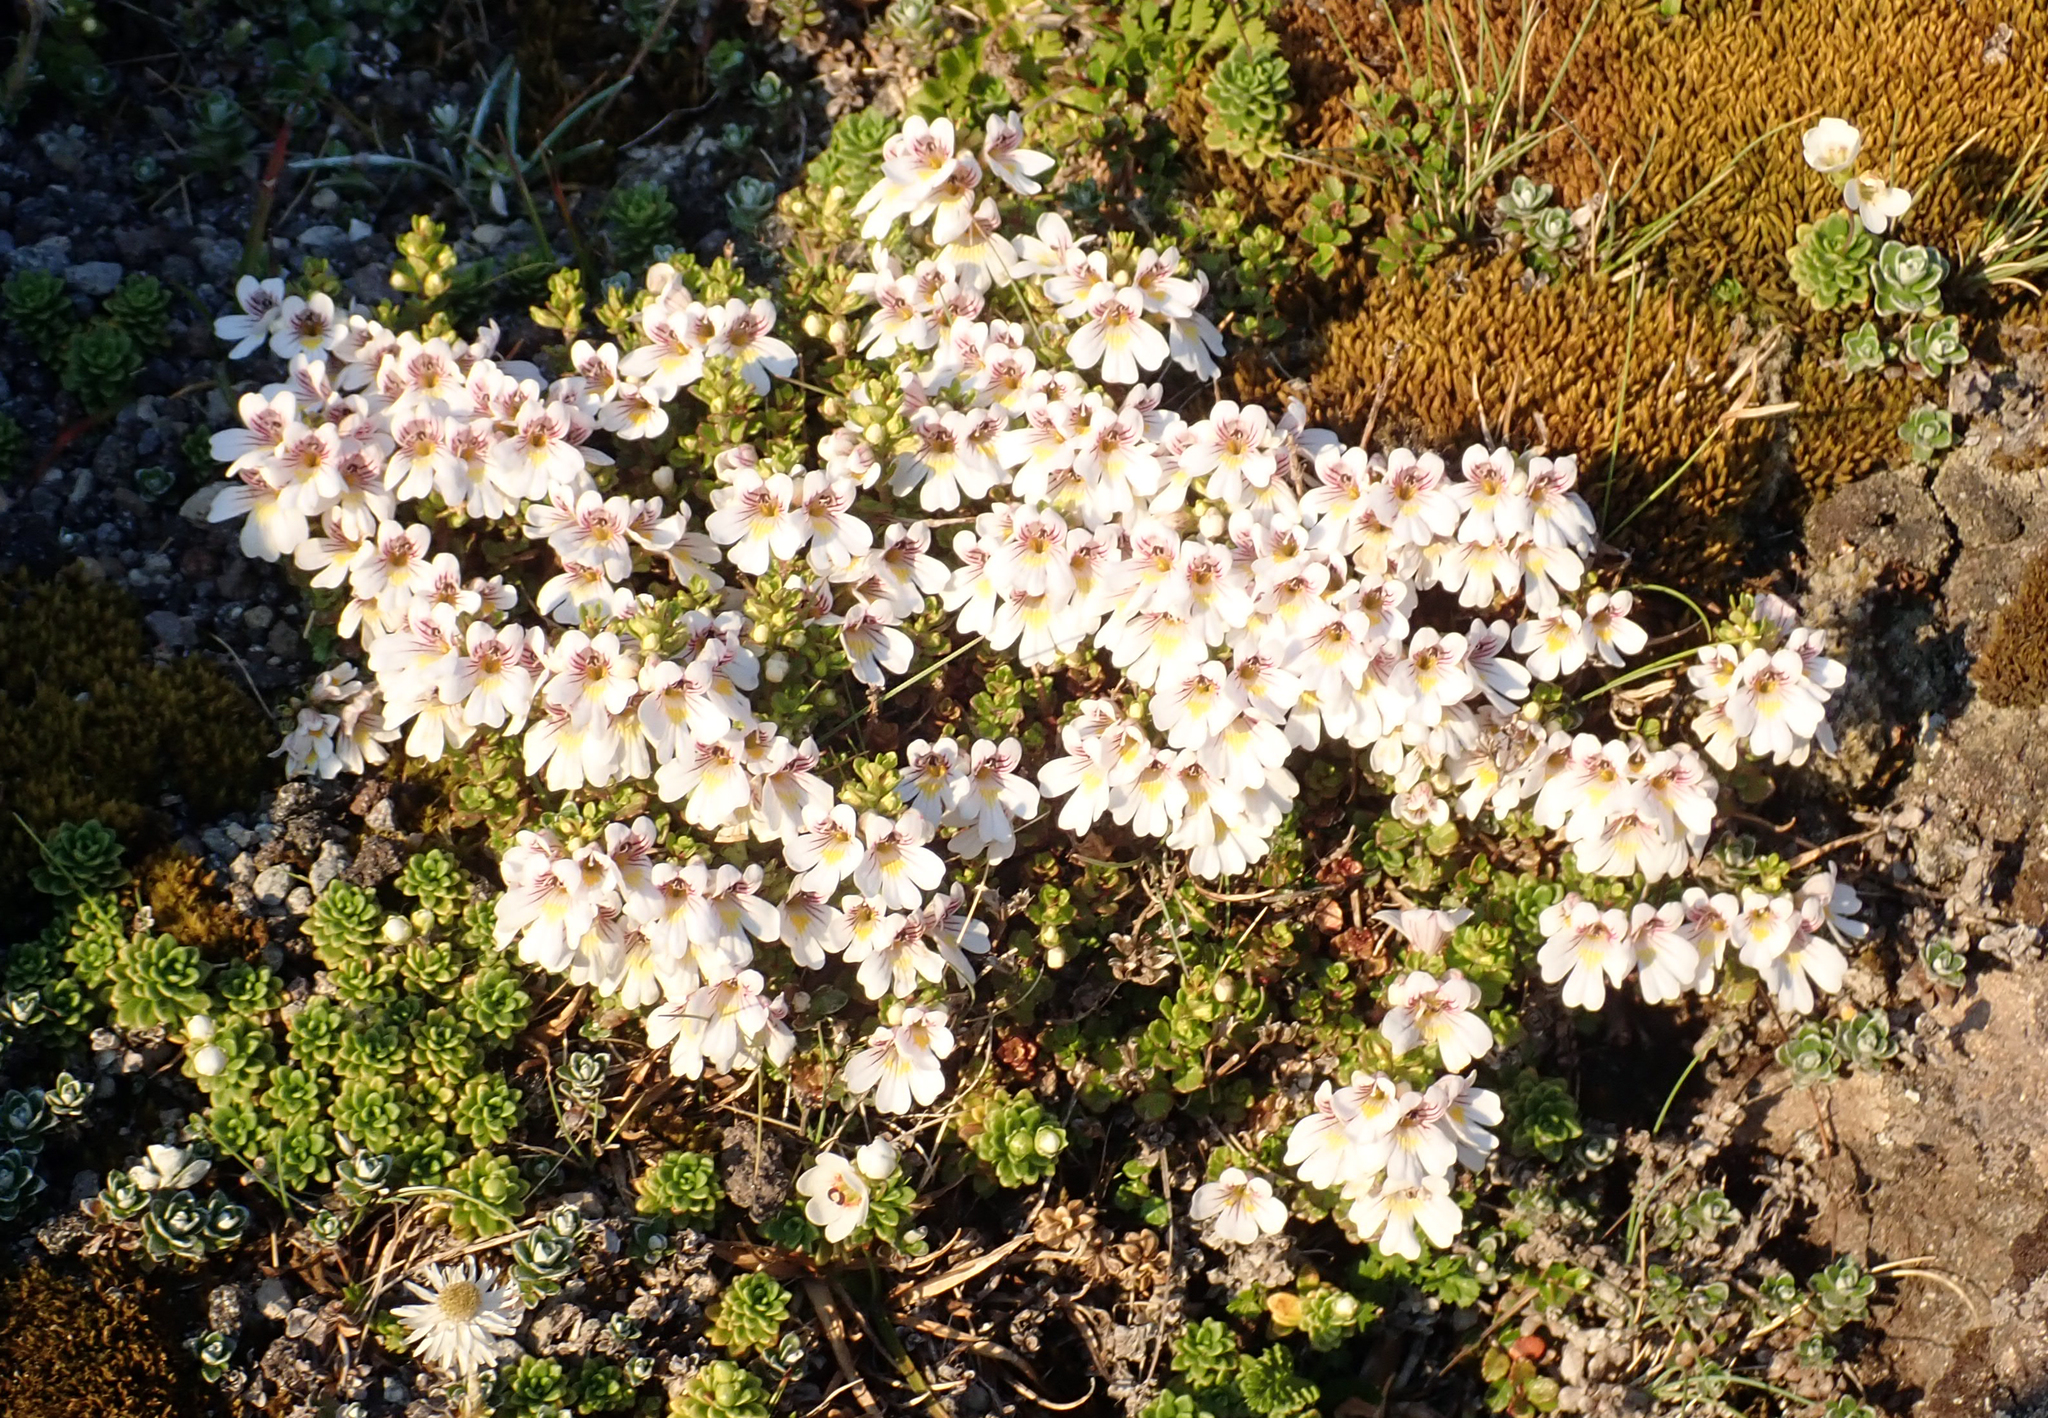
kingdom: Plantae
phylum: Tracheophyta
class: Magnoliopsida
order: Lamiales
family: Orobanchaceae
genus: Euphrasia
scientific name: Euphrasia cuneata
